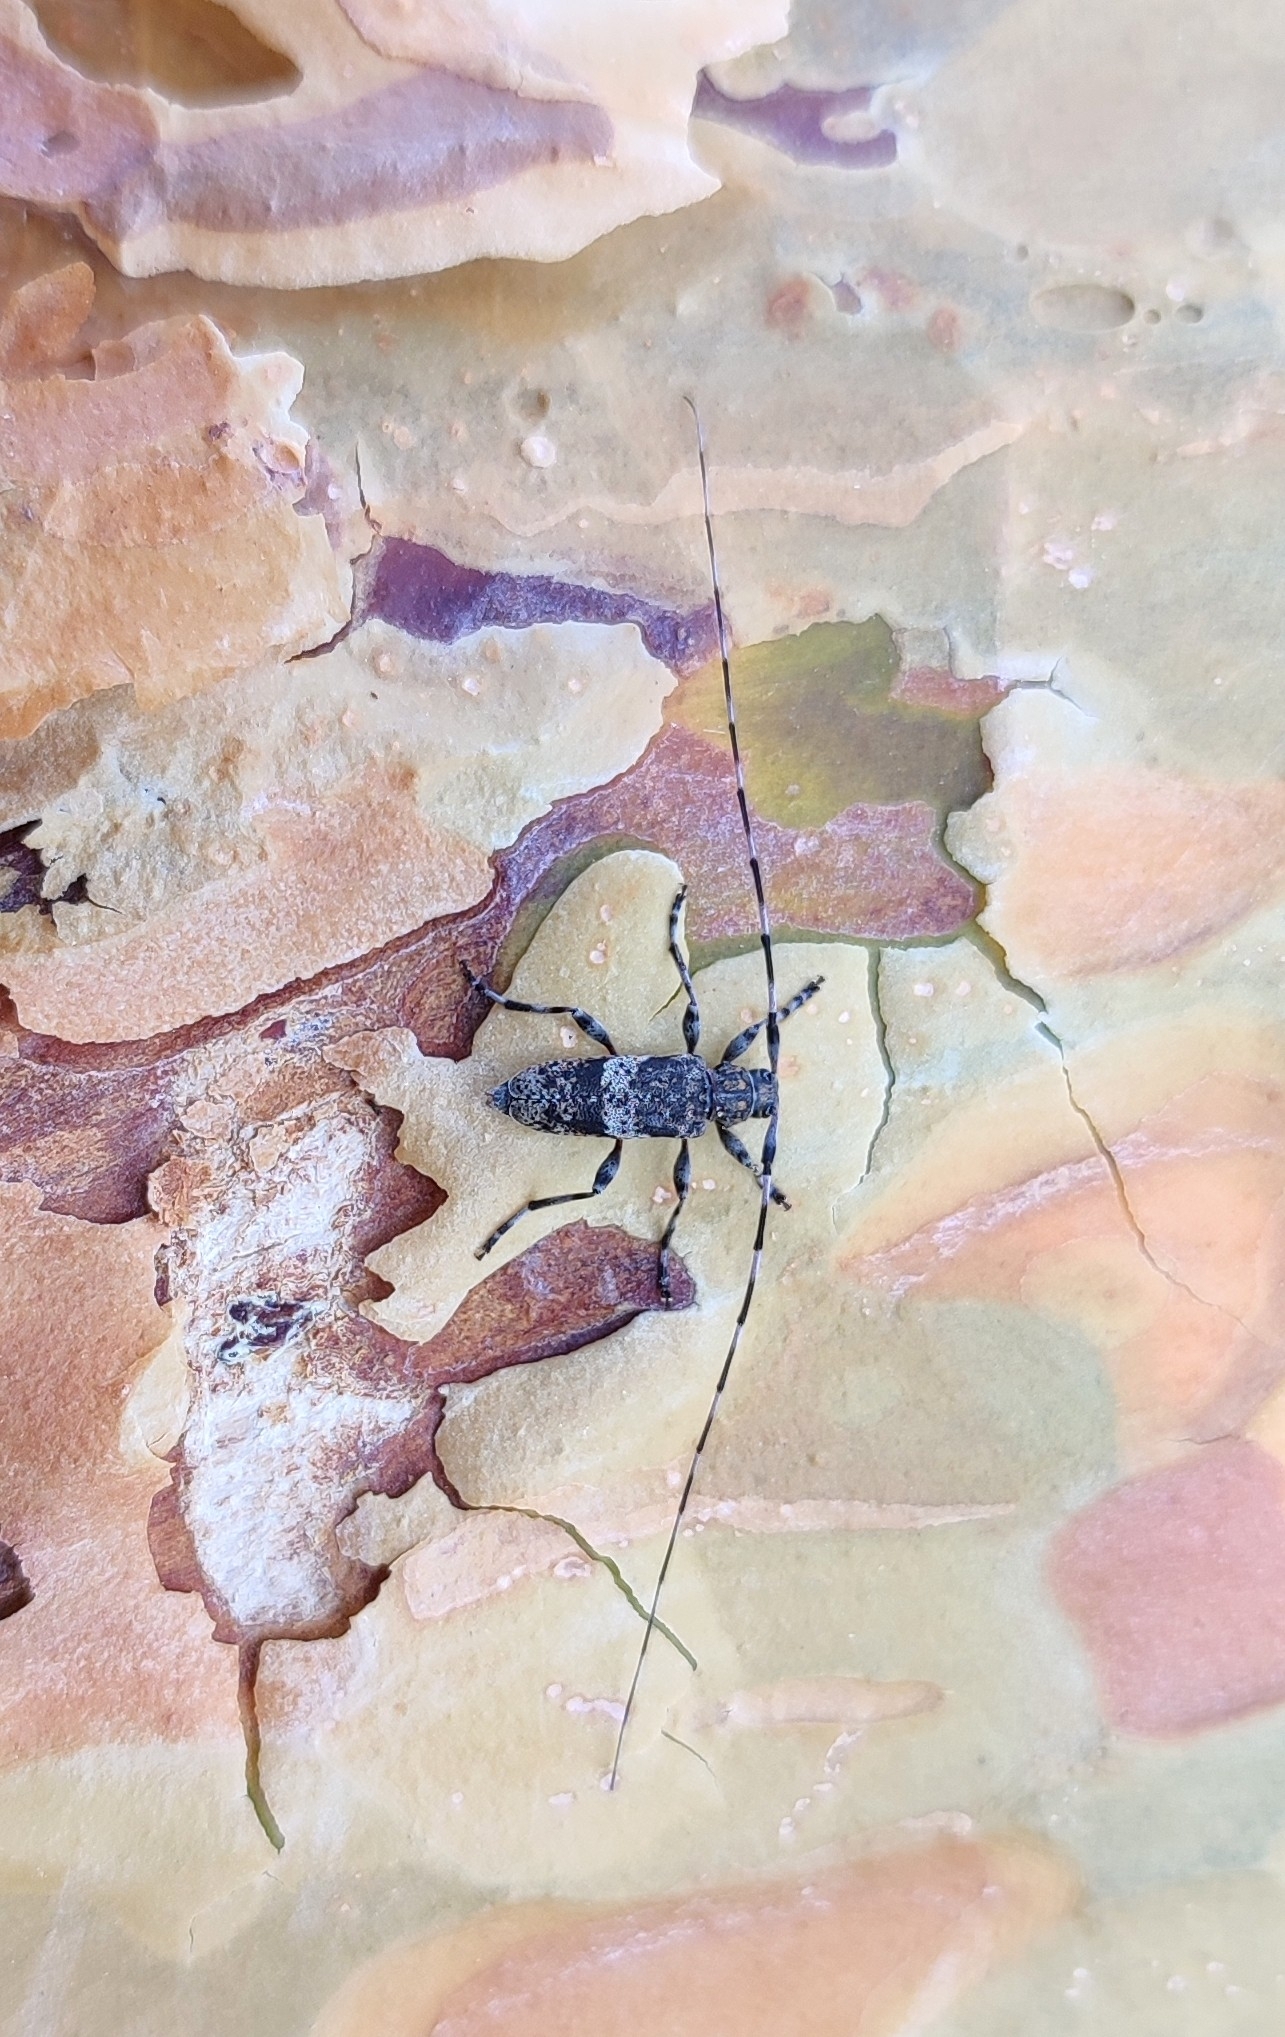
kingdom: Animalia
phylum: Arthropoda
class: Insecta
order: Coleoptera
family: Cerambycidae
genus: Acanthocinus
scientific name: Acanthocinus griseus
